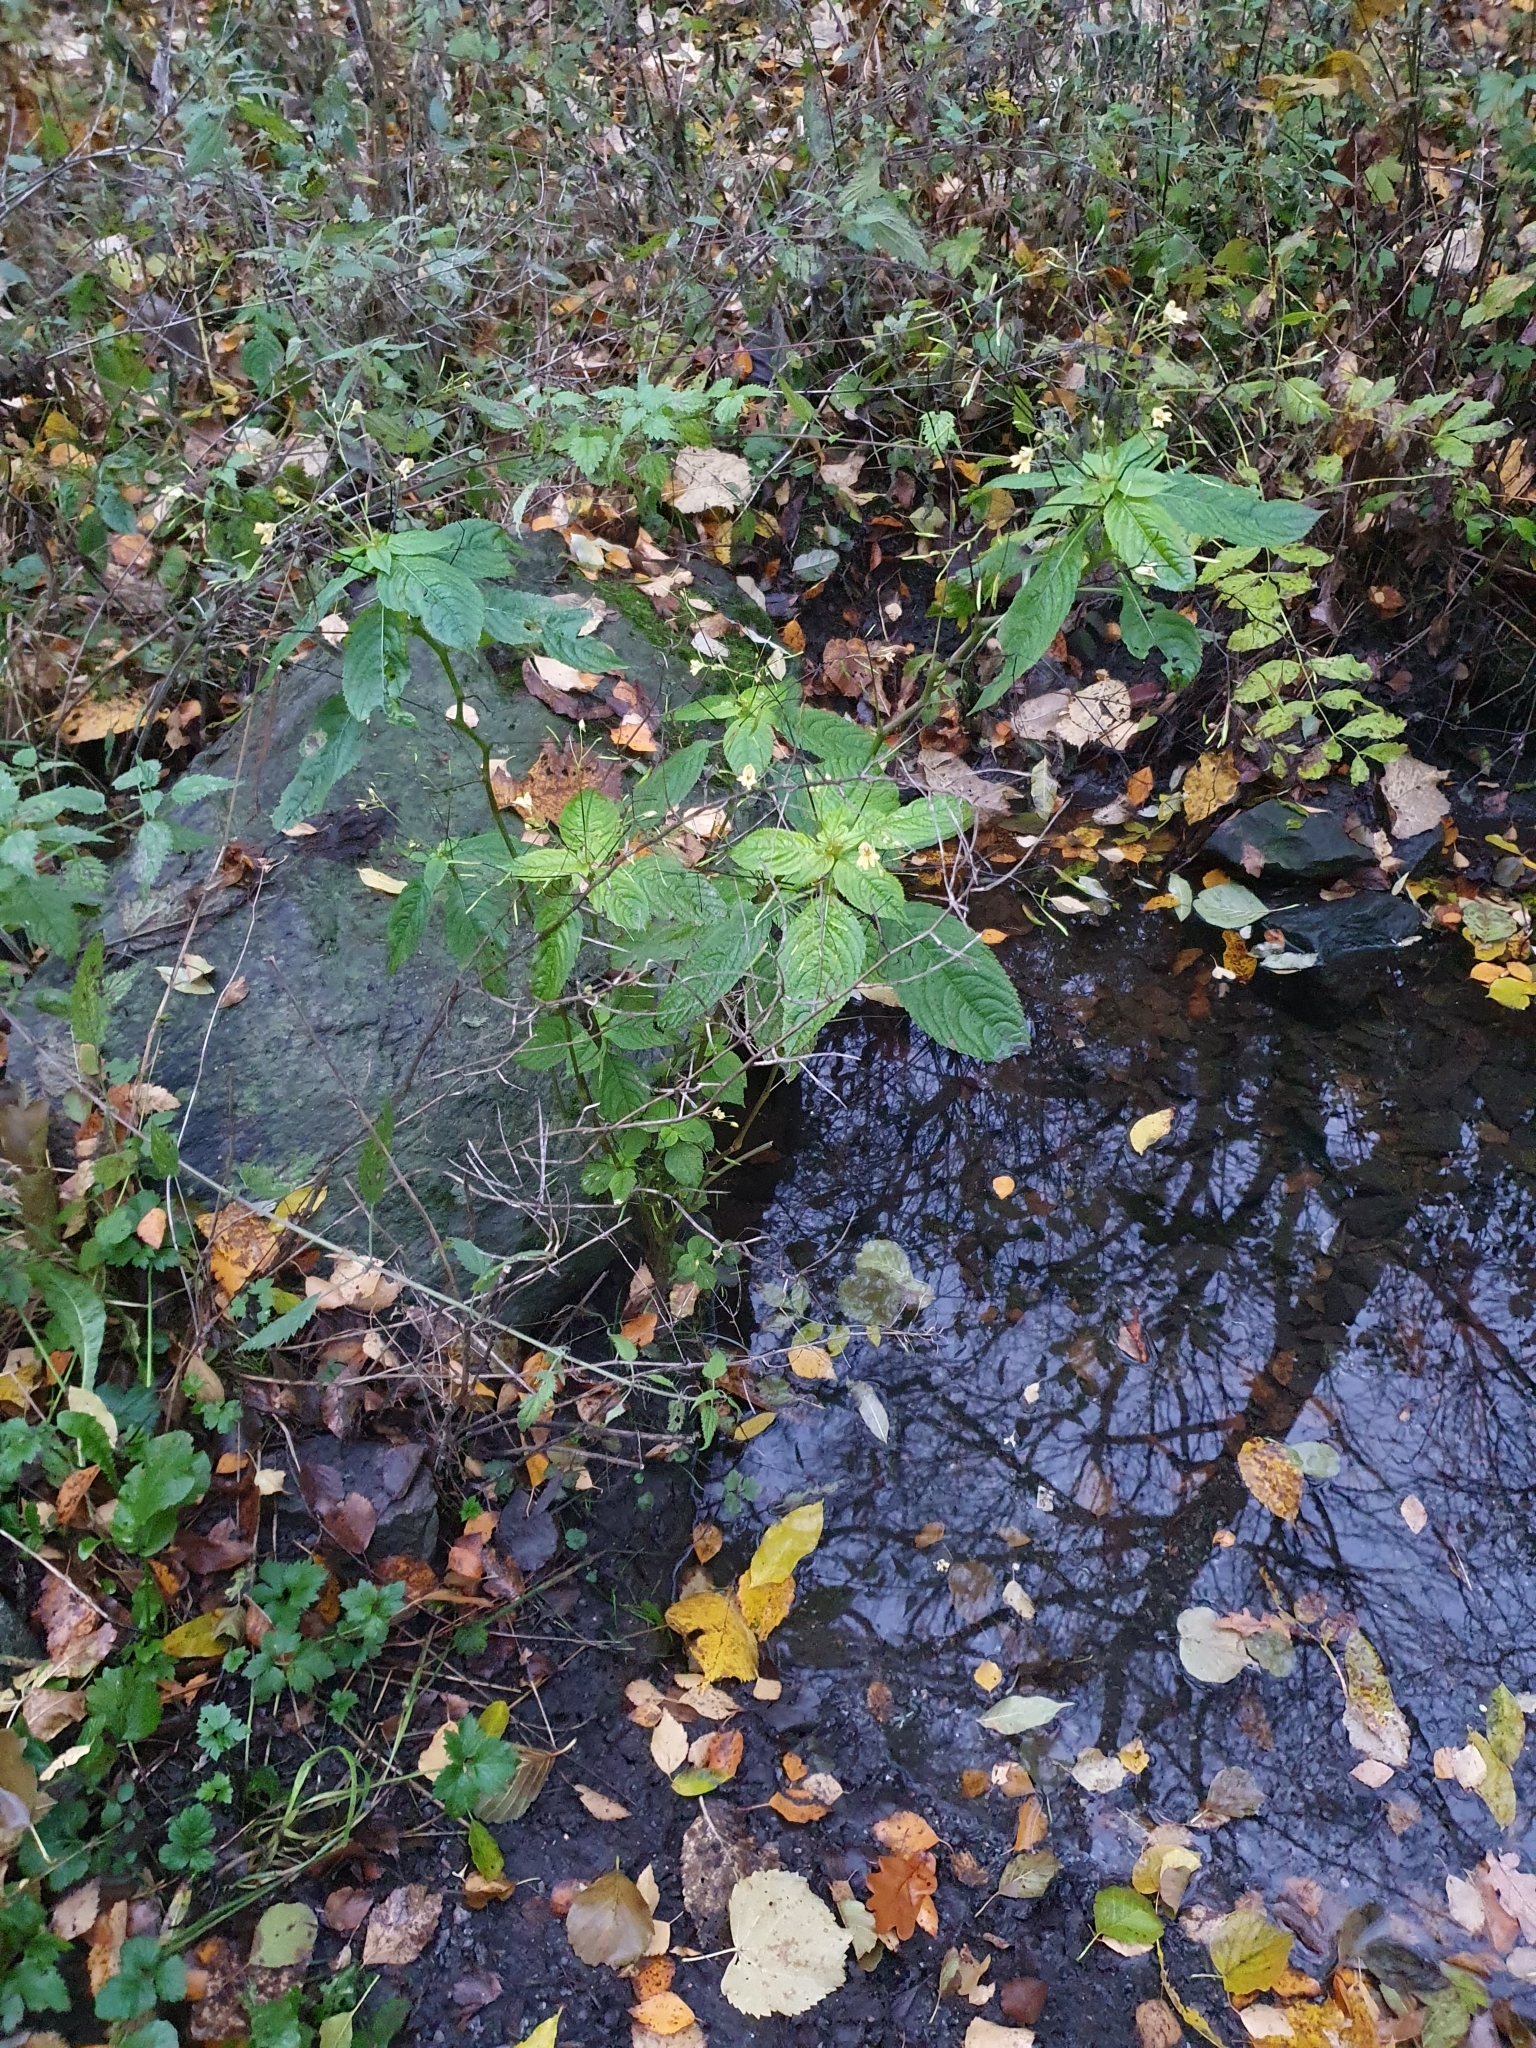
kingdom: Plantae
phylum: Tracheophyta
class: Magnoliopsida
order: Ericales
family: Balsaminaceae
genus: Impatiens
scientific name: Impatiens parviflora
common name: Small balsam
